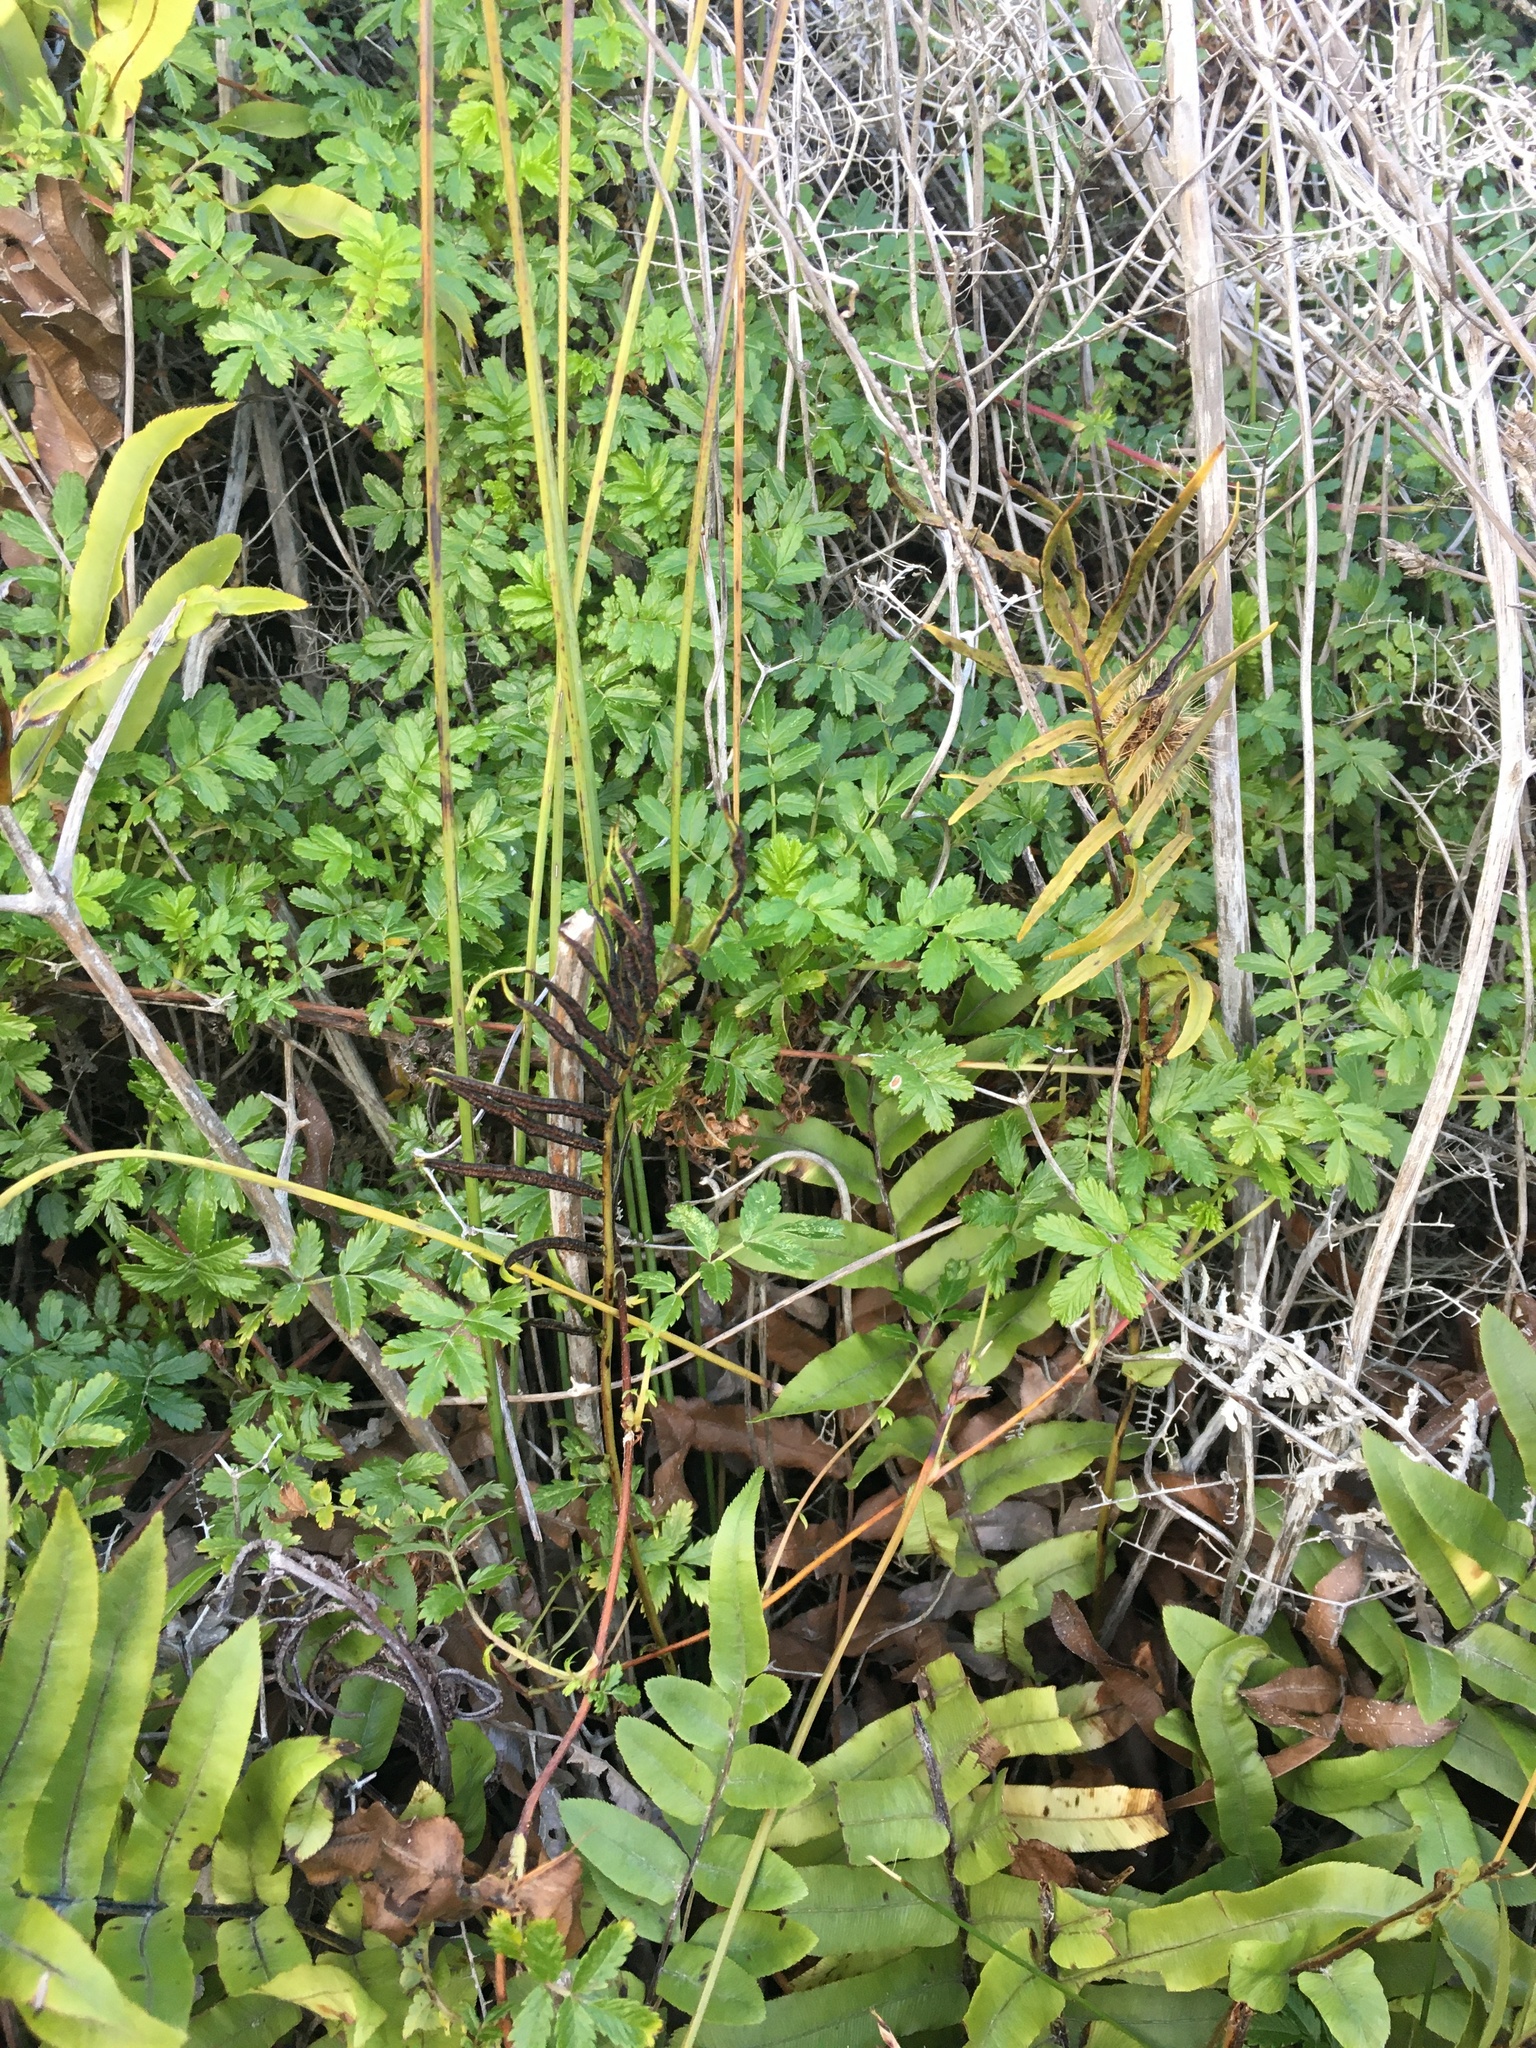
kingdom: Plantae
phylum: Tracheophyta
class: Polypodiopsida
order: Polypodiales
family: Blechnaceae
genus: Parablechnum
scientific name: Parablechnum minus
